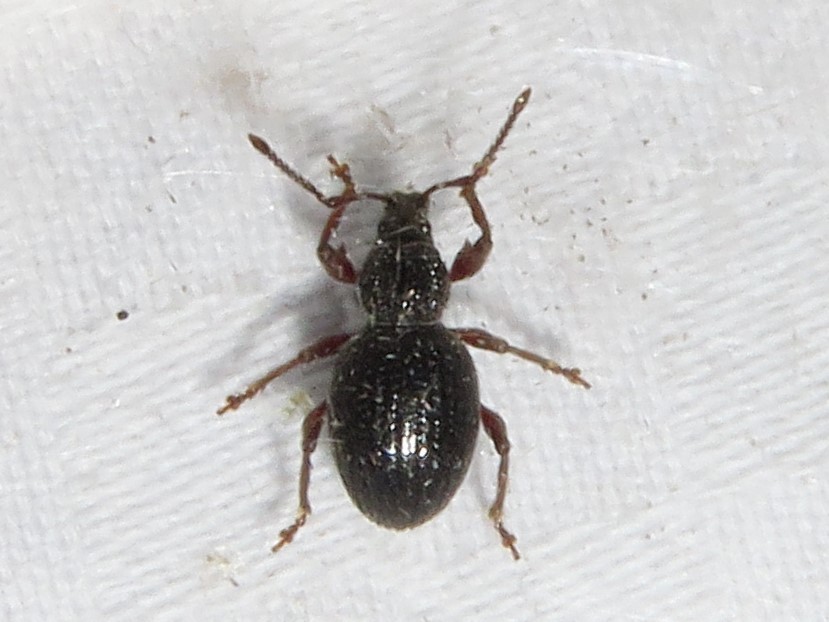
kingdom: Animalia
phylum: Arthropoda
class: Insecta
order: Coleoptera
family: Curculionidae
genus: Otiorhynchus
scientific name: Otiorhynchus ovatus
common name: Strawberry root weevil
